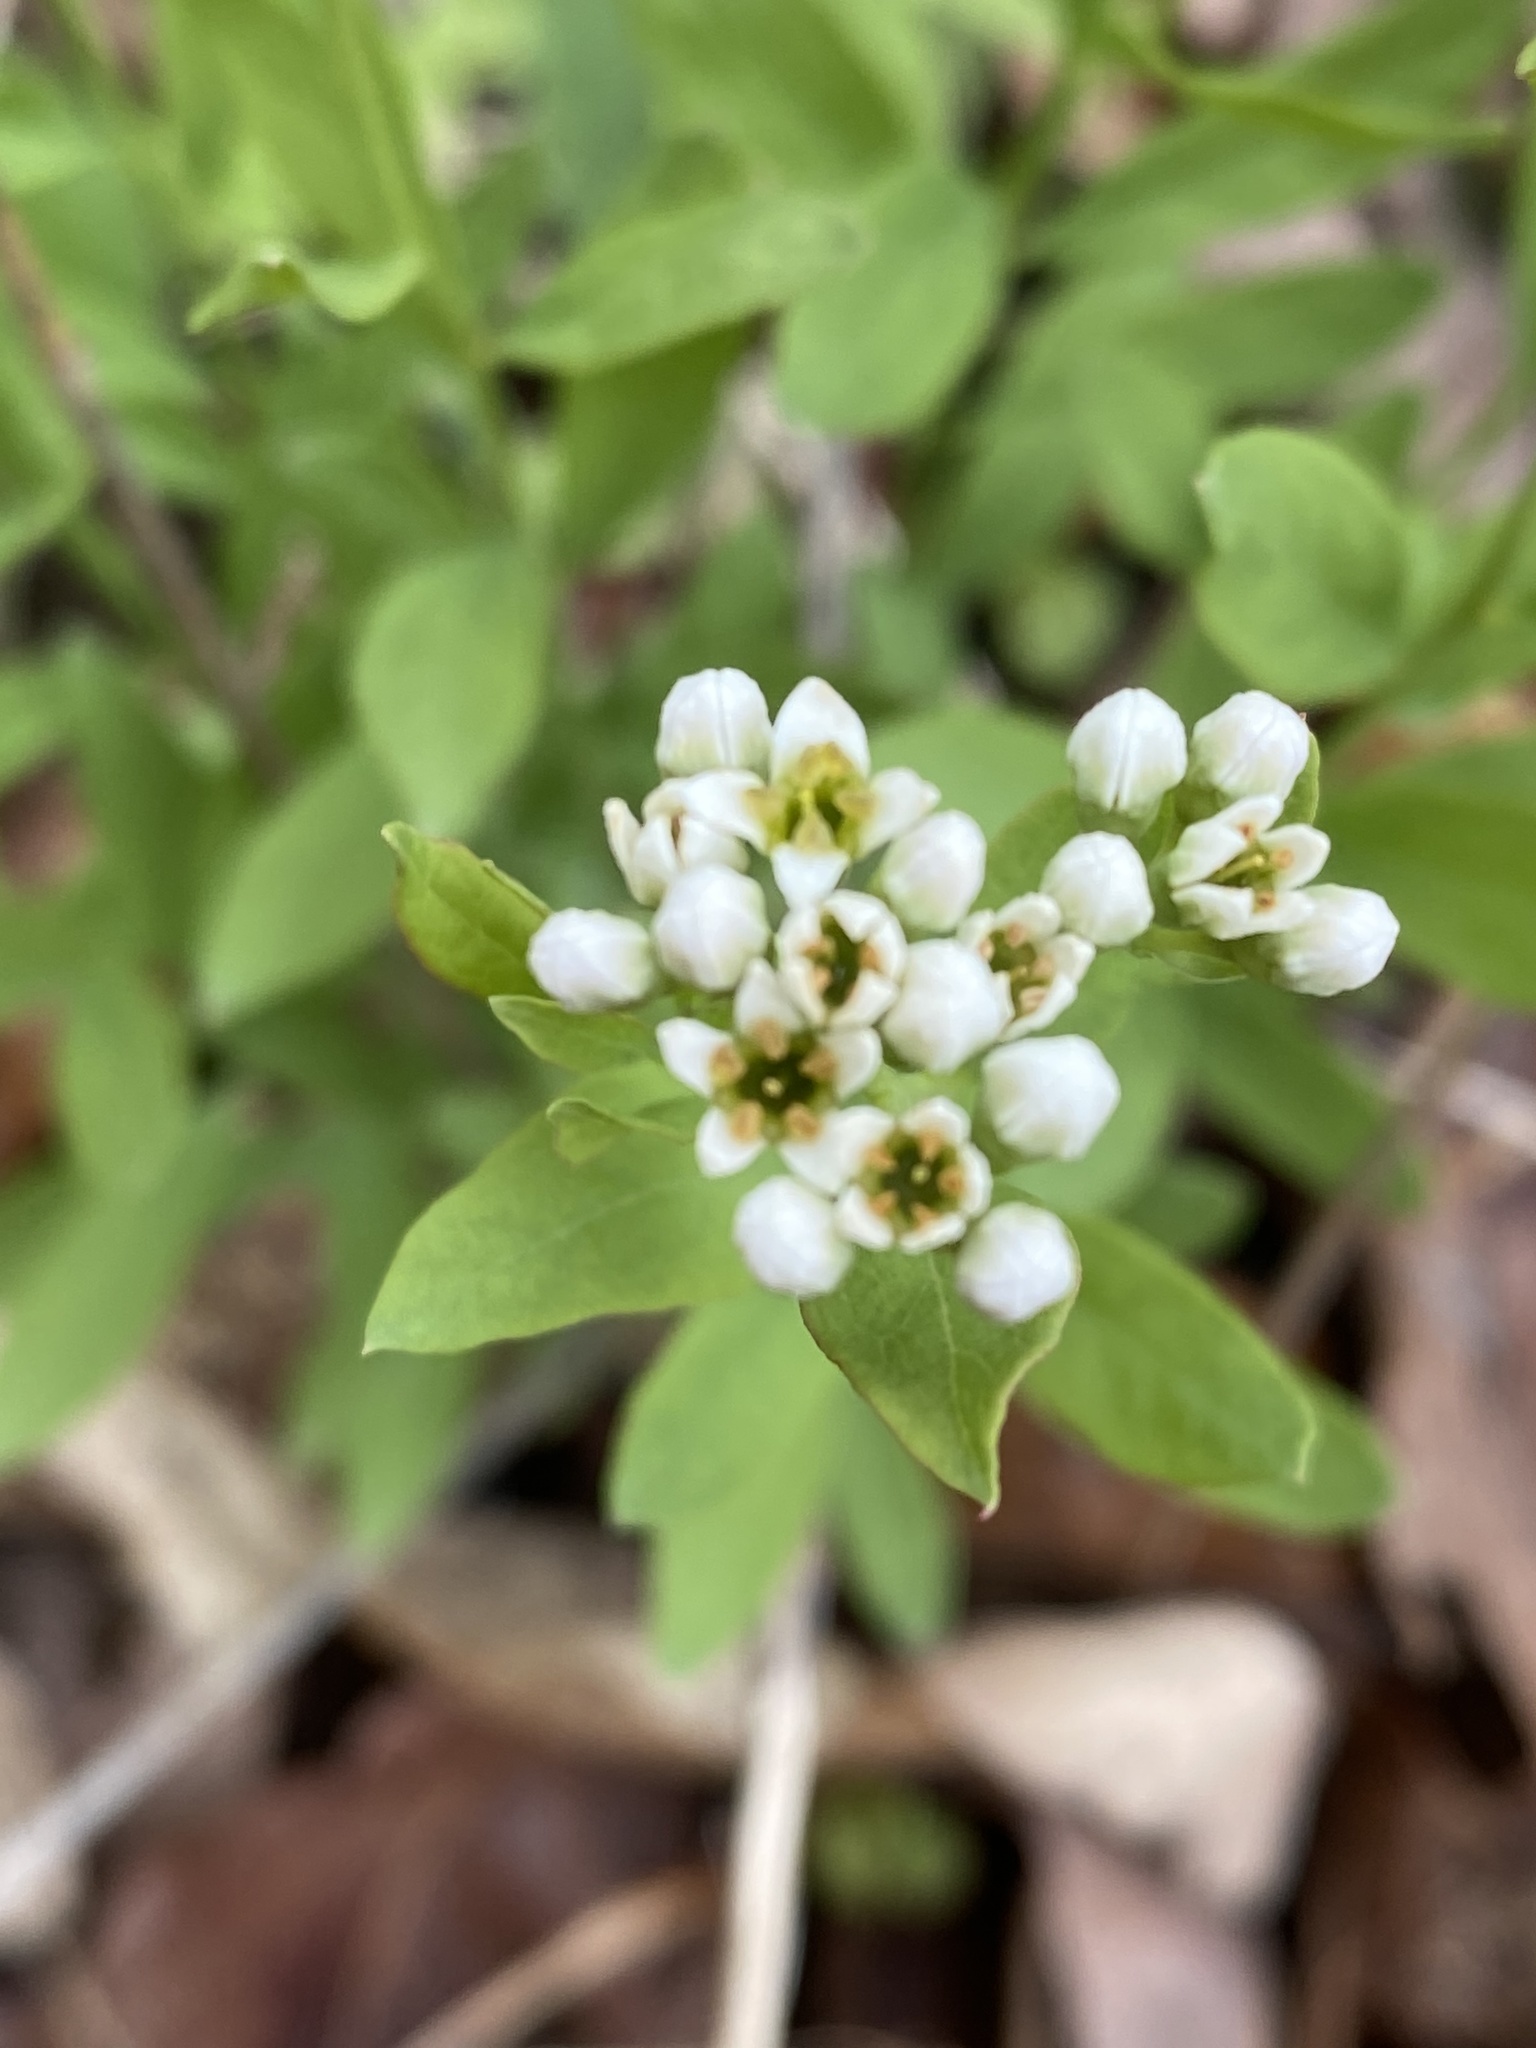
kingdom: Plantae
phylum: Tracheophyta
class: Magnoliopsida
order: Santalales
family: Comandraceae
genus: Comandra
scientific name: Comandra umbellata
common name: Bastard toadflax
